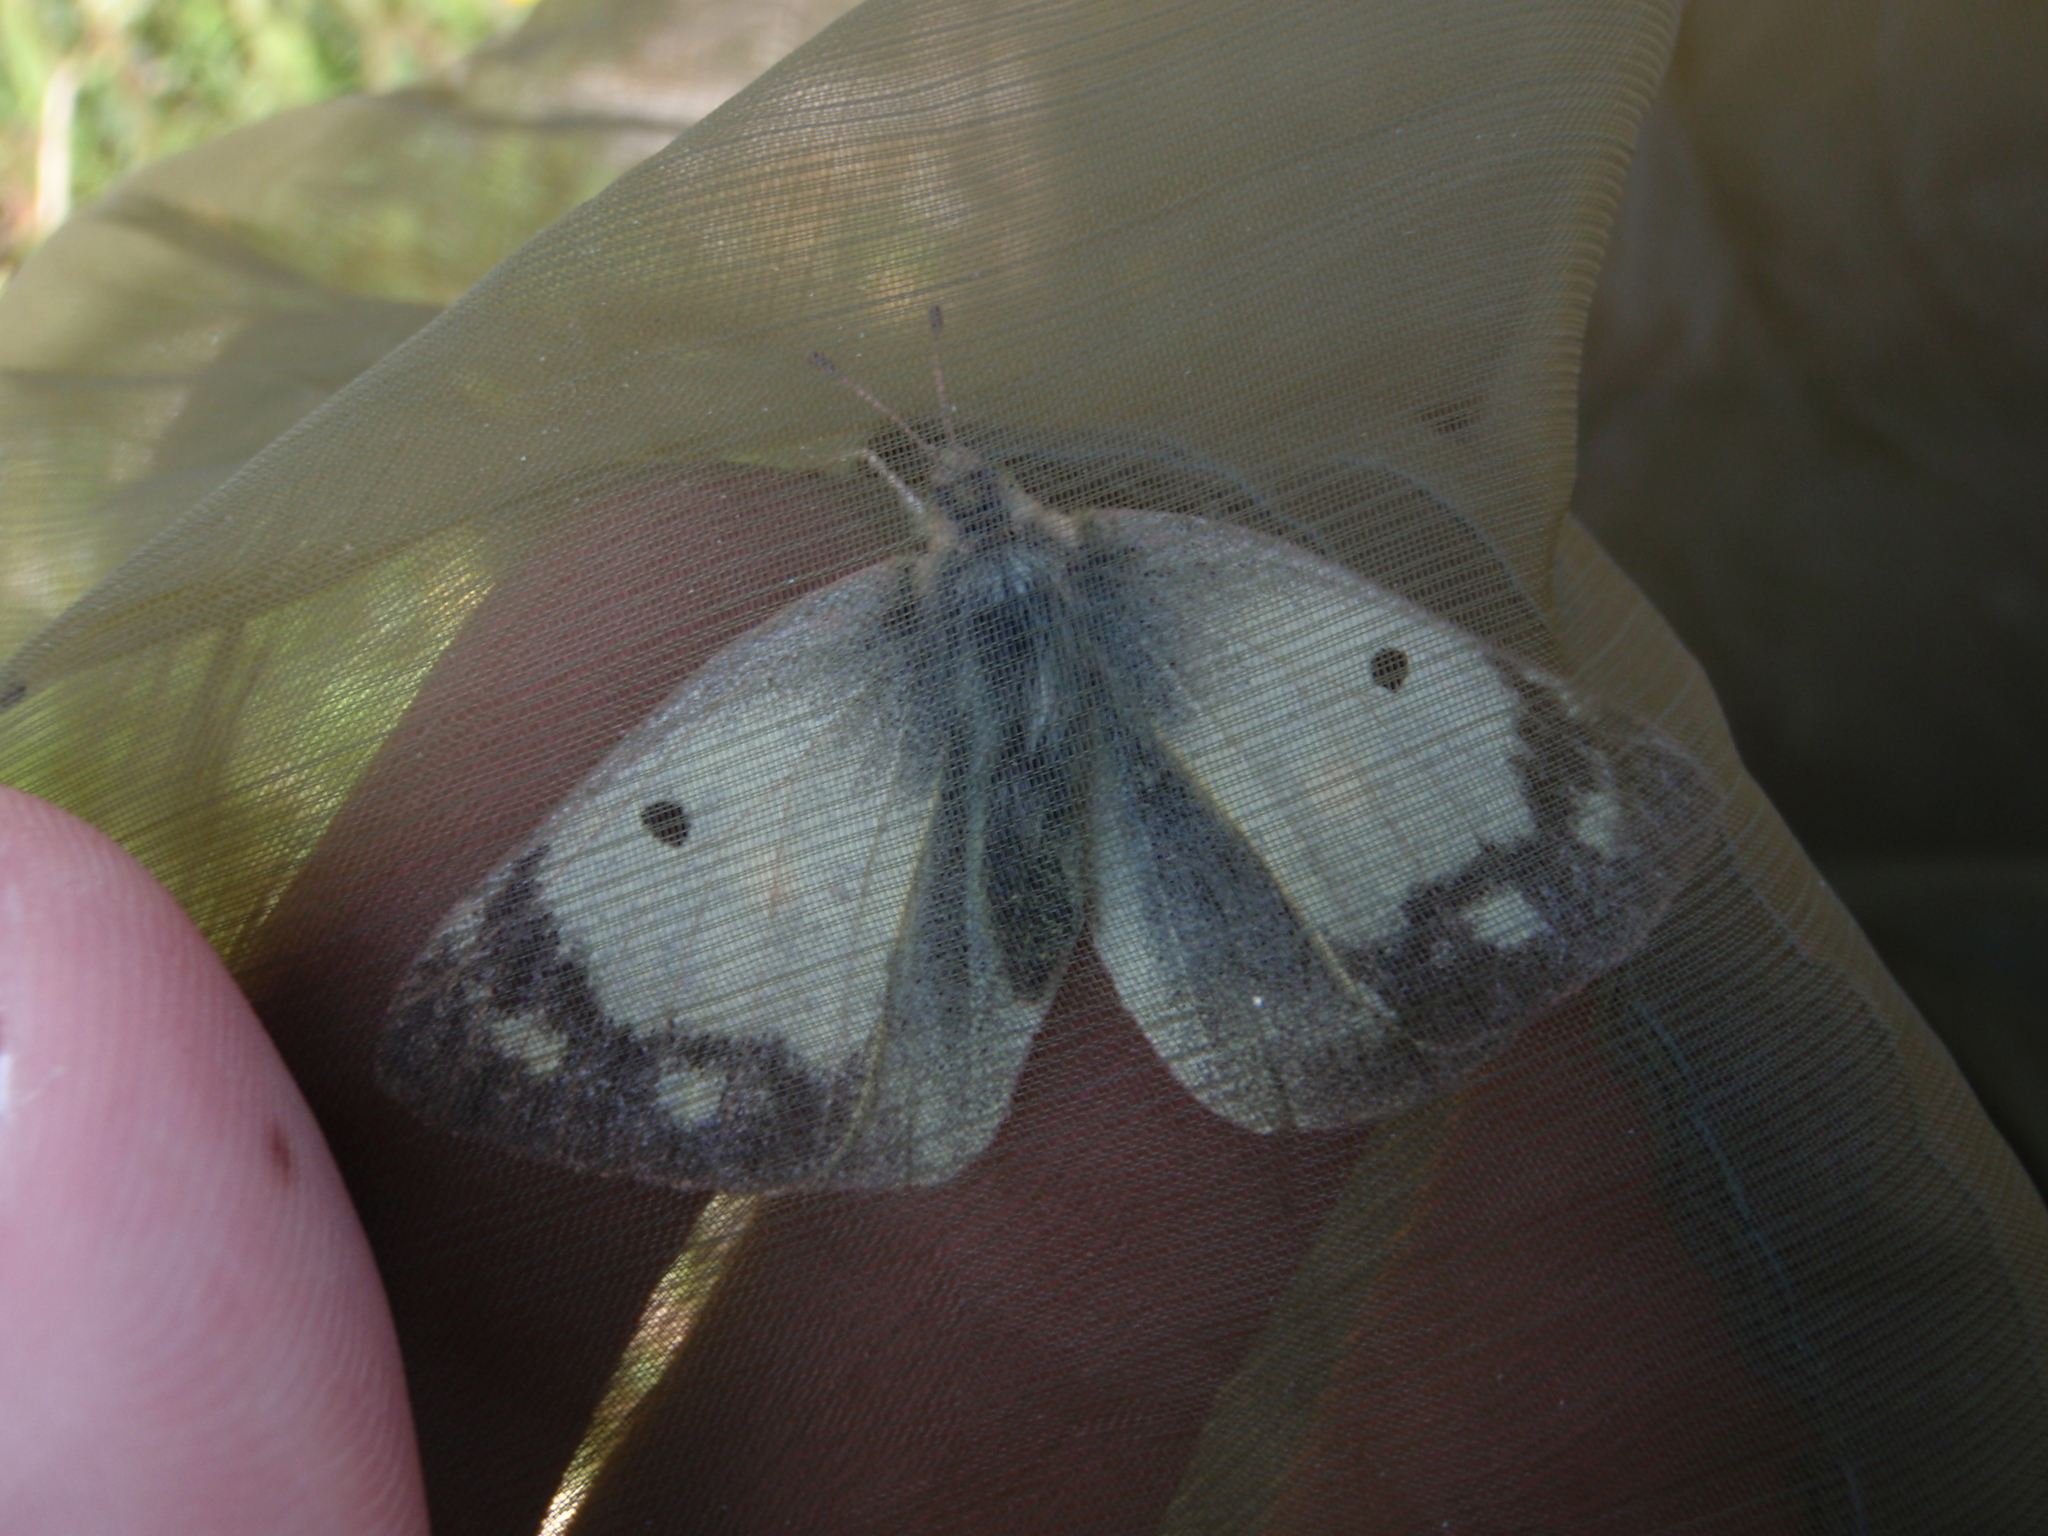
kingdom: Animalia
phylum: Arthropoda
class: Insecta
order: Lepidoptera
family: Pieridae
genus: Colias
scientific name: Colias croceus
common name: Clouded yellow
